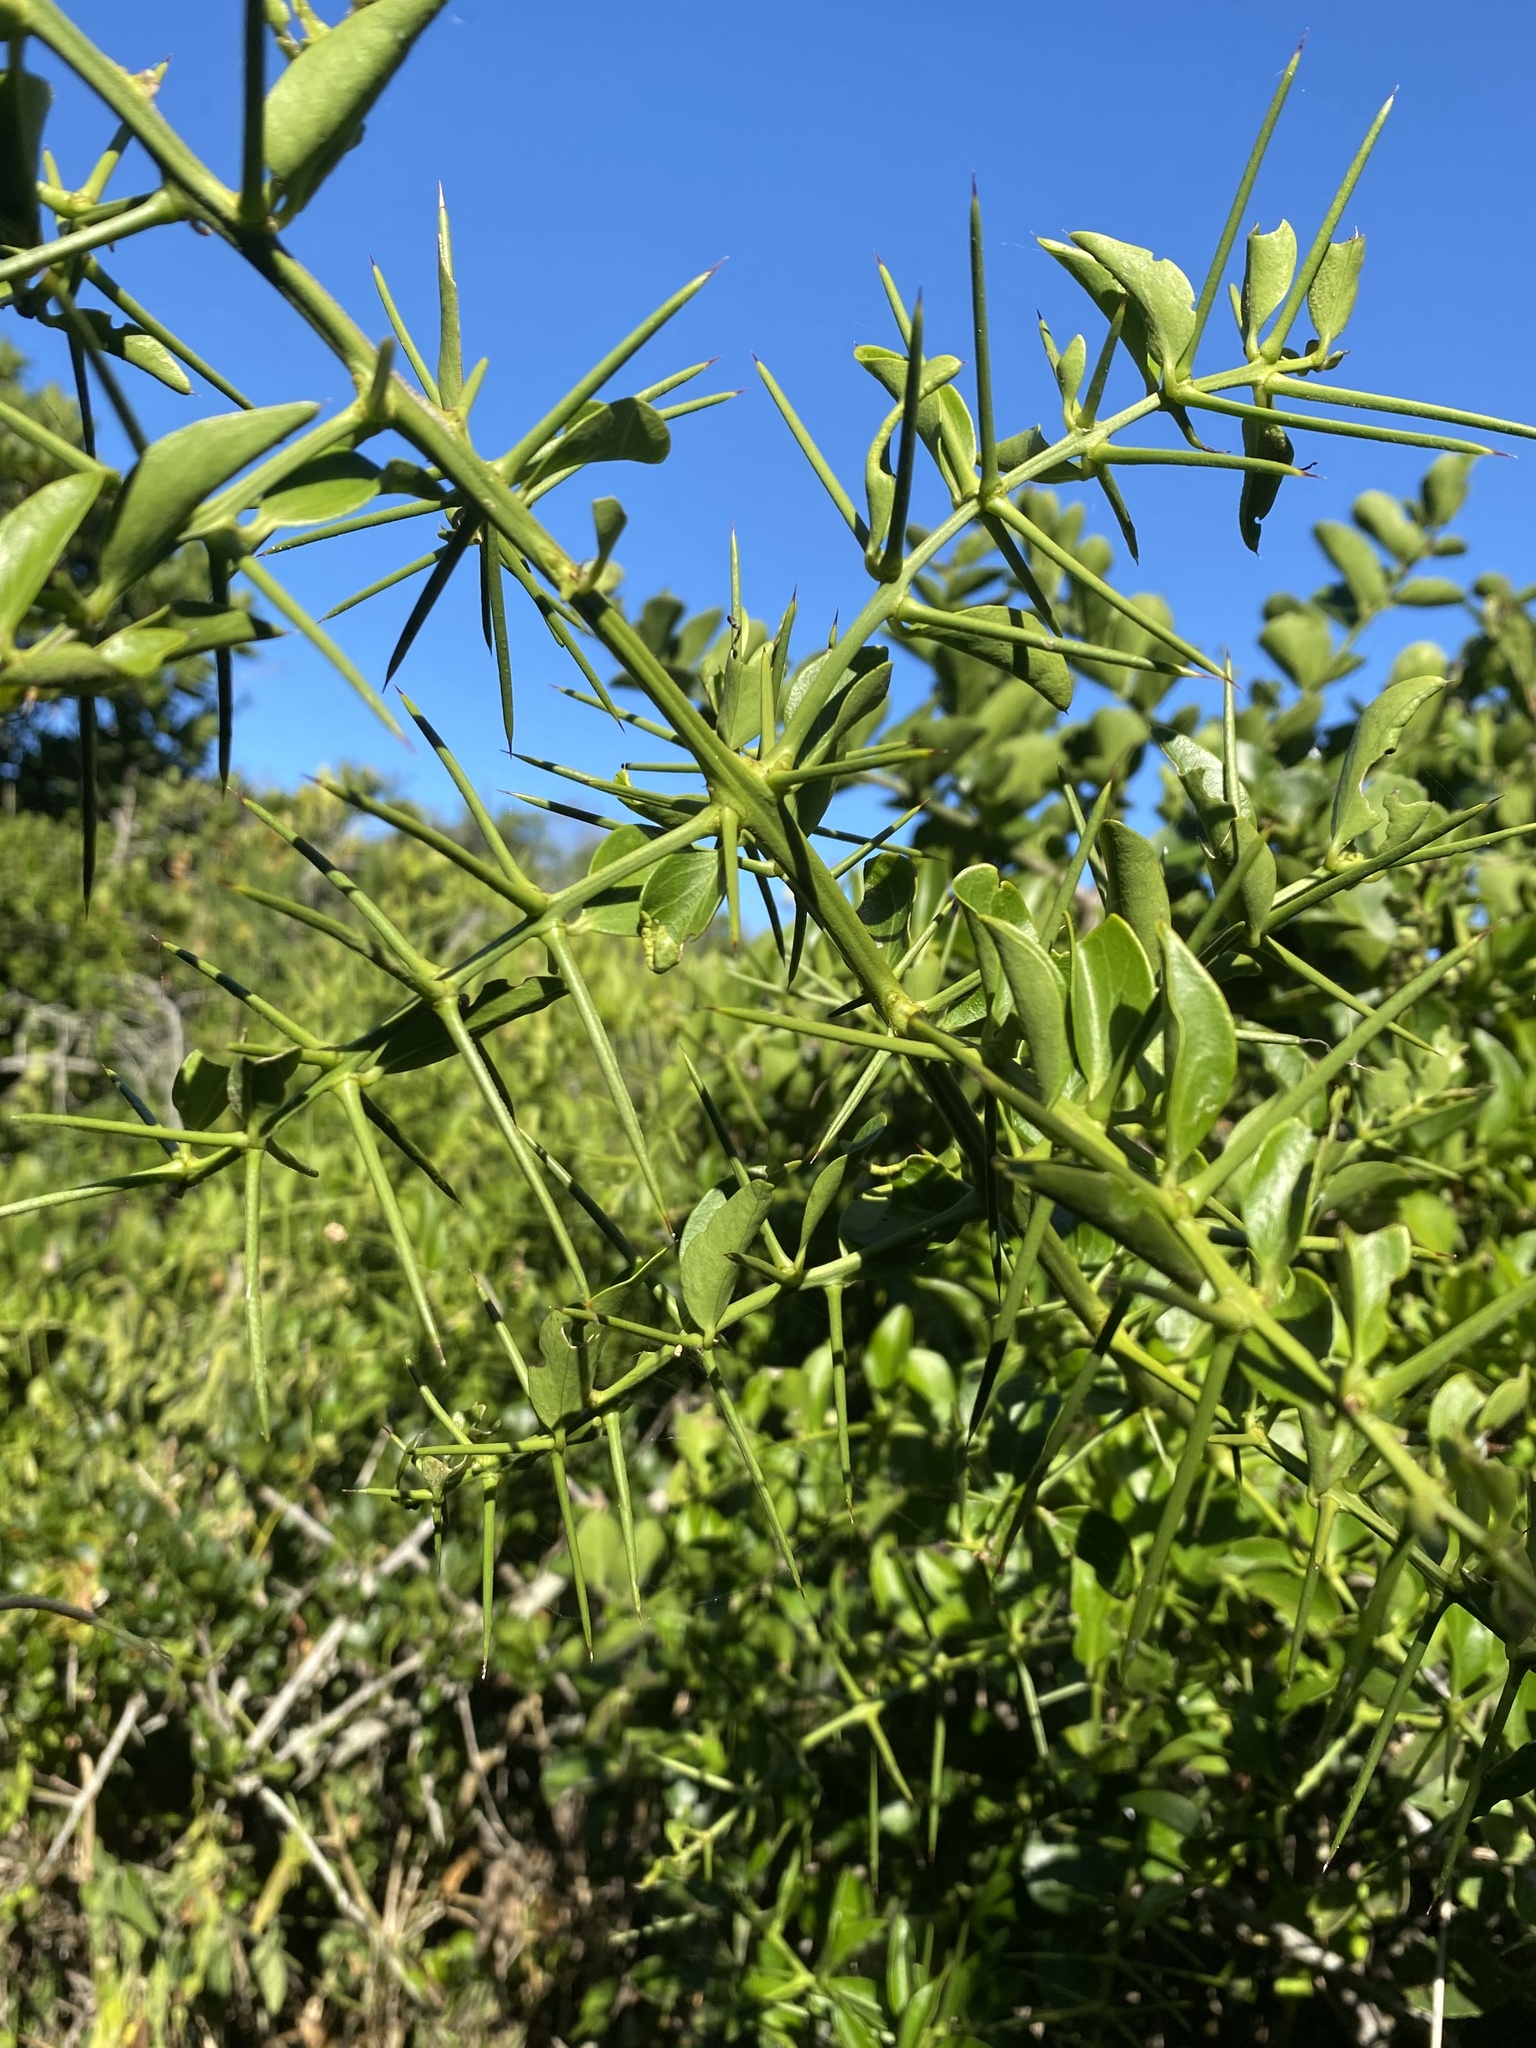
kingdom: Plantae
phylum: Tracheophyta
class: Magnoliopsida
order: Brassicales
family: Salvadoraceae
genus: Azima
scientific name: Azima tetracantha
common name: Needle bush
